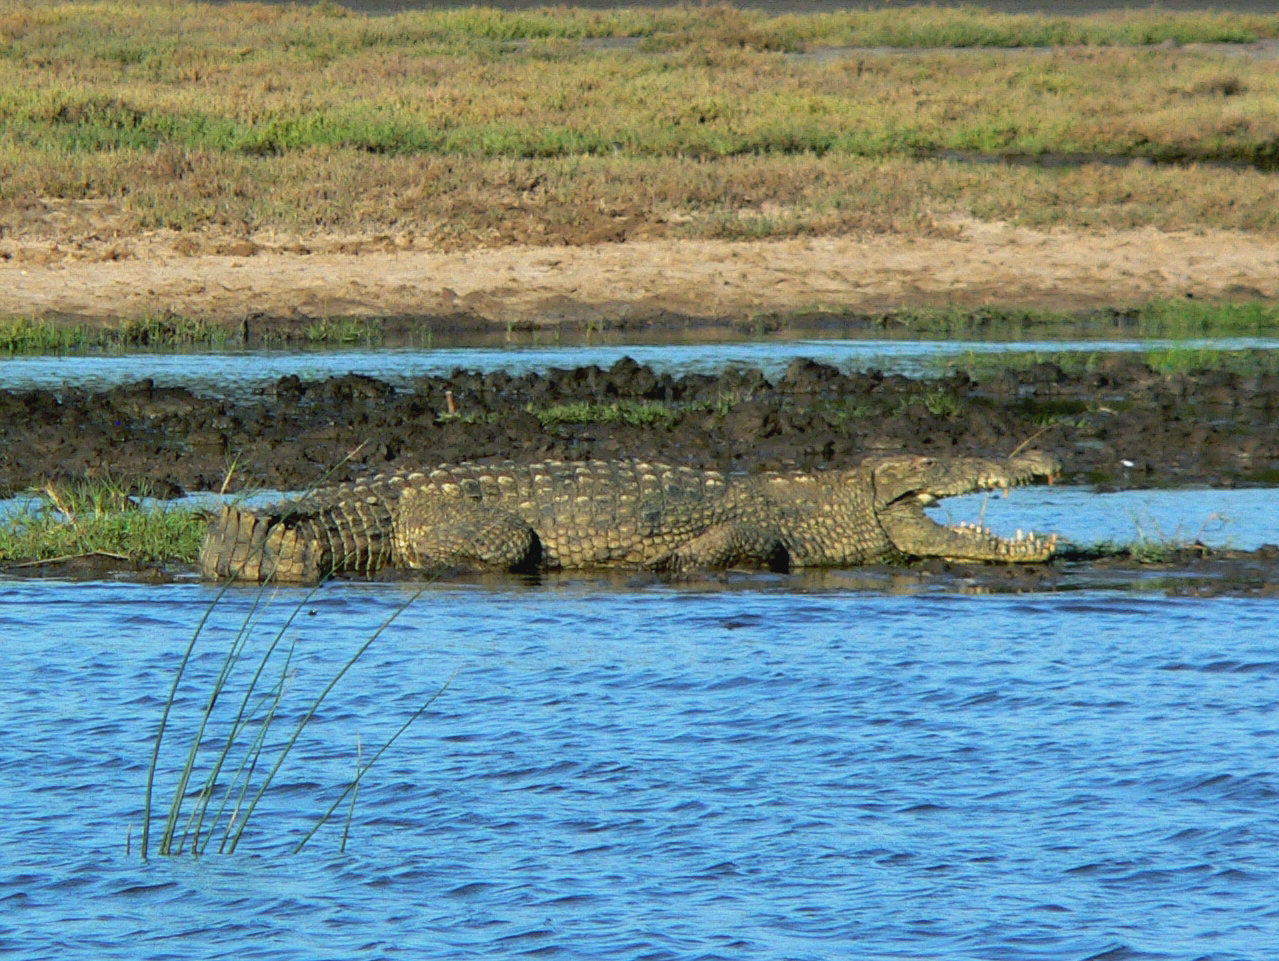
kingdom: Animalia
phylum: Chordata
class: Crocodylia
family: Crocodylidae
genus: Crocodylus
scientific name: Crocodylus niloticus
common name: Nile crocodile
